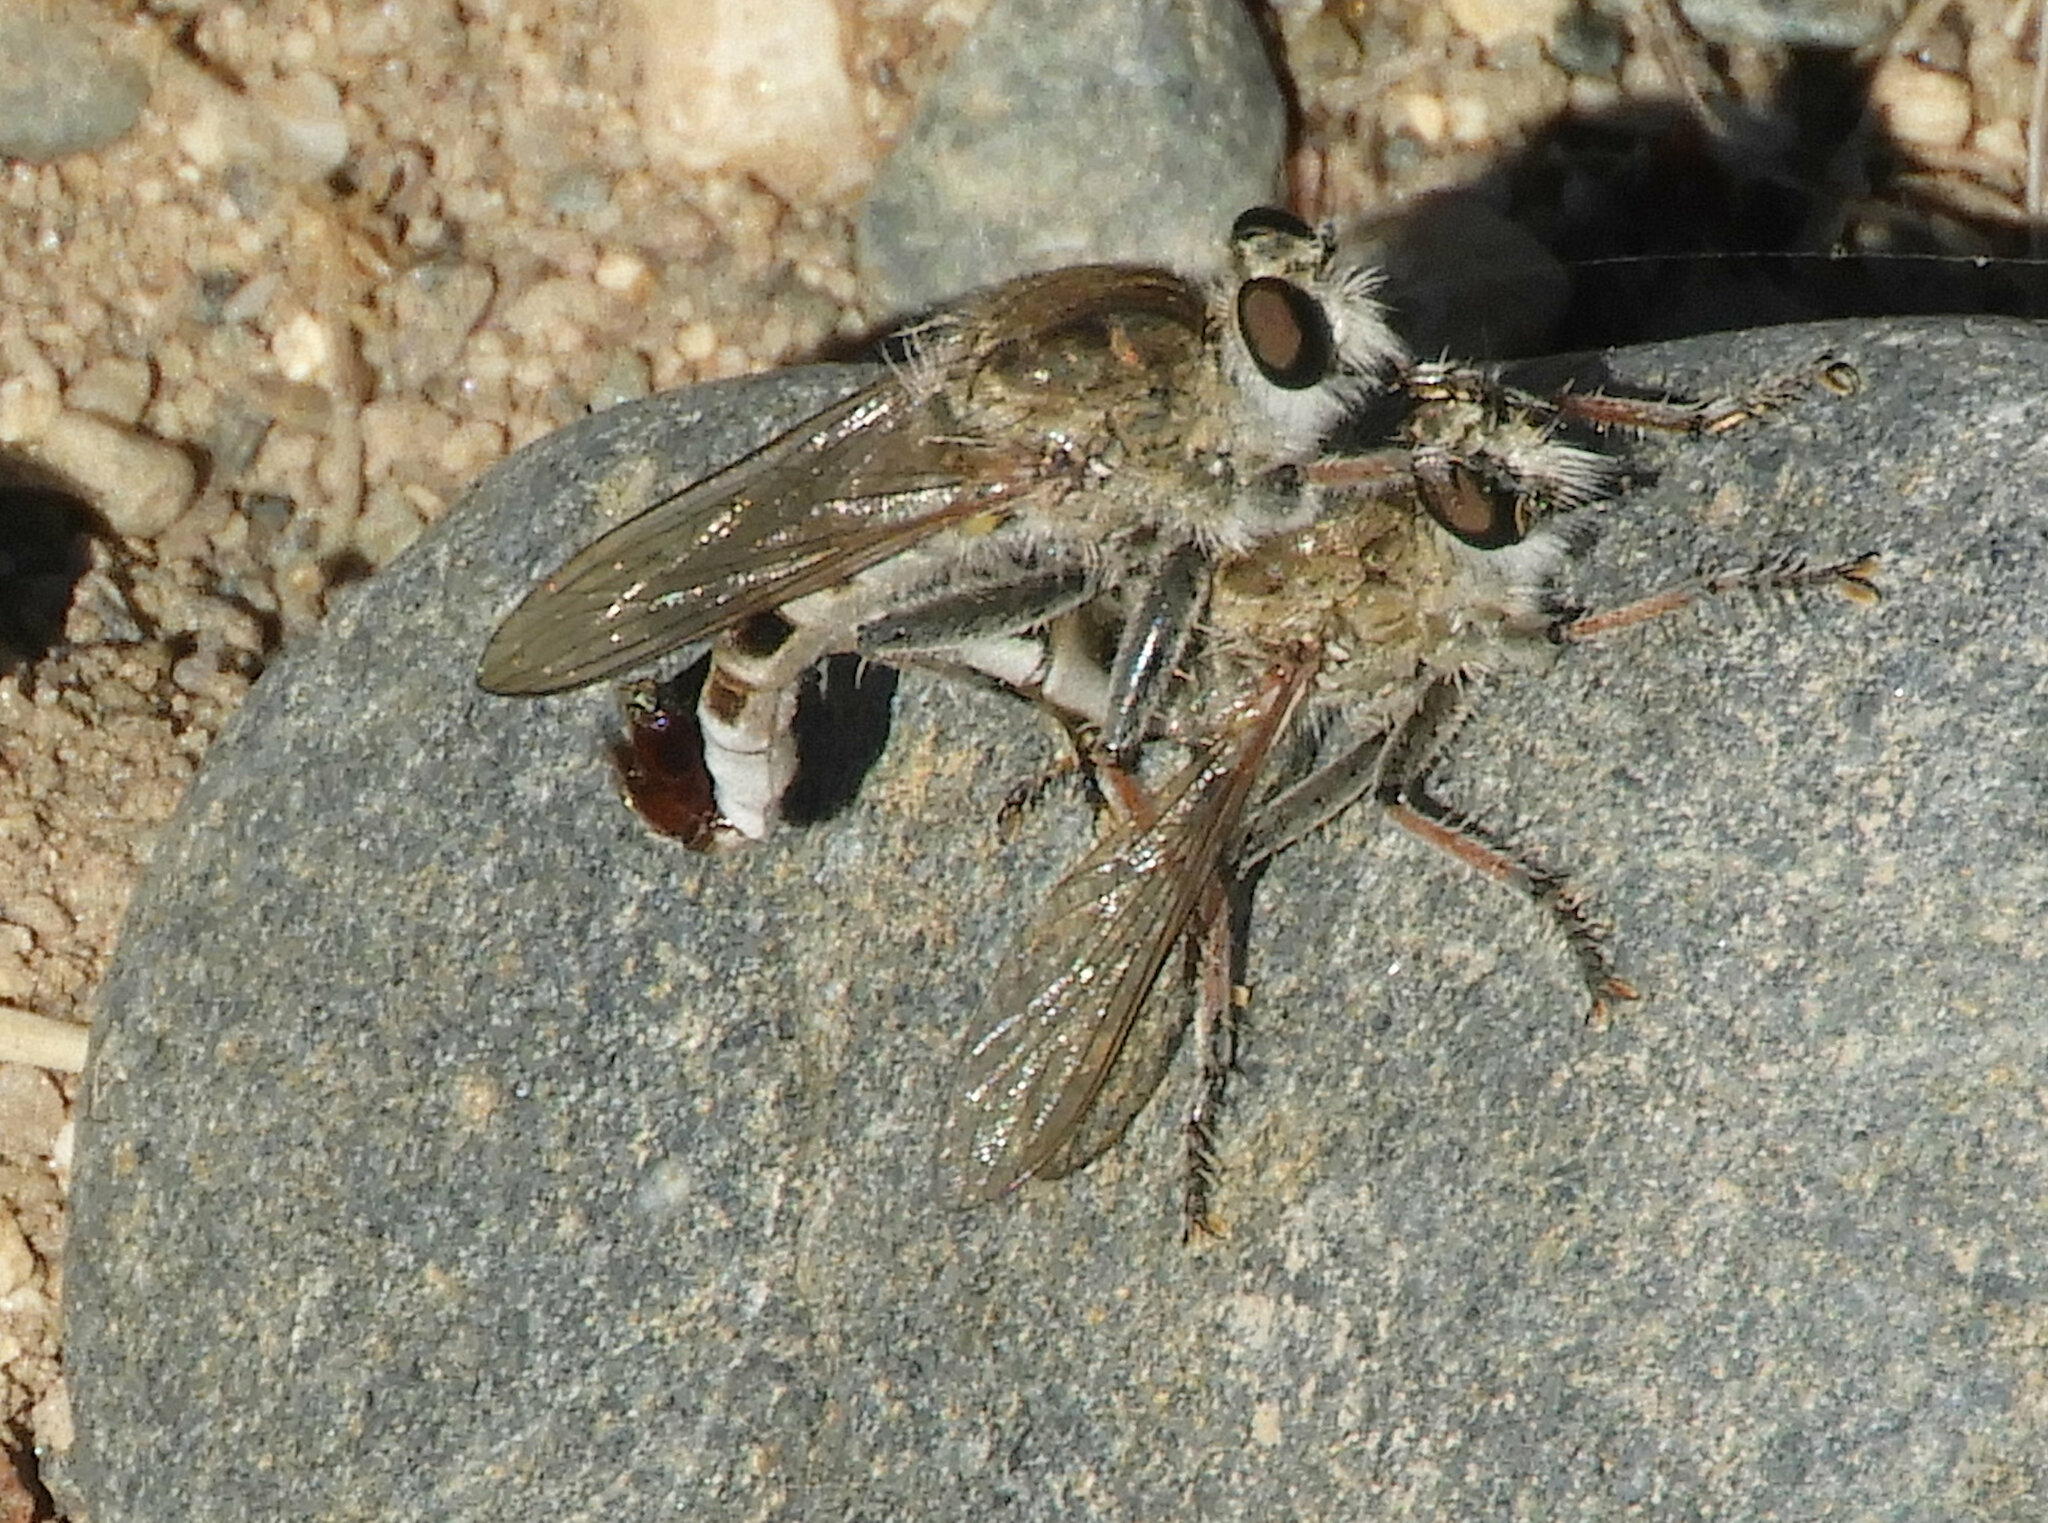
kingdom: Animalia
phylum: Arthropoda
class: Insecta
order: Diptera
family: Asilidae
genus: Efferia
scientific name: Efferia albibarbis
